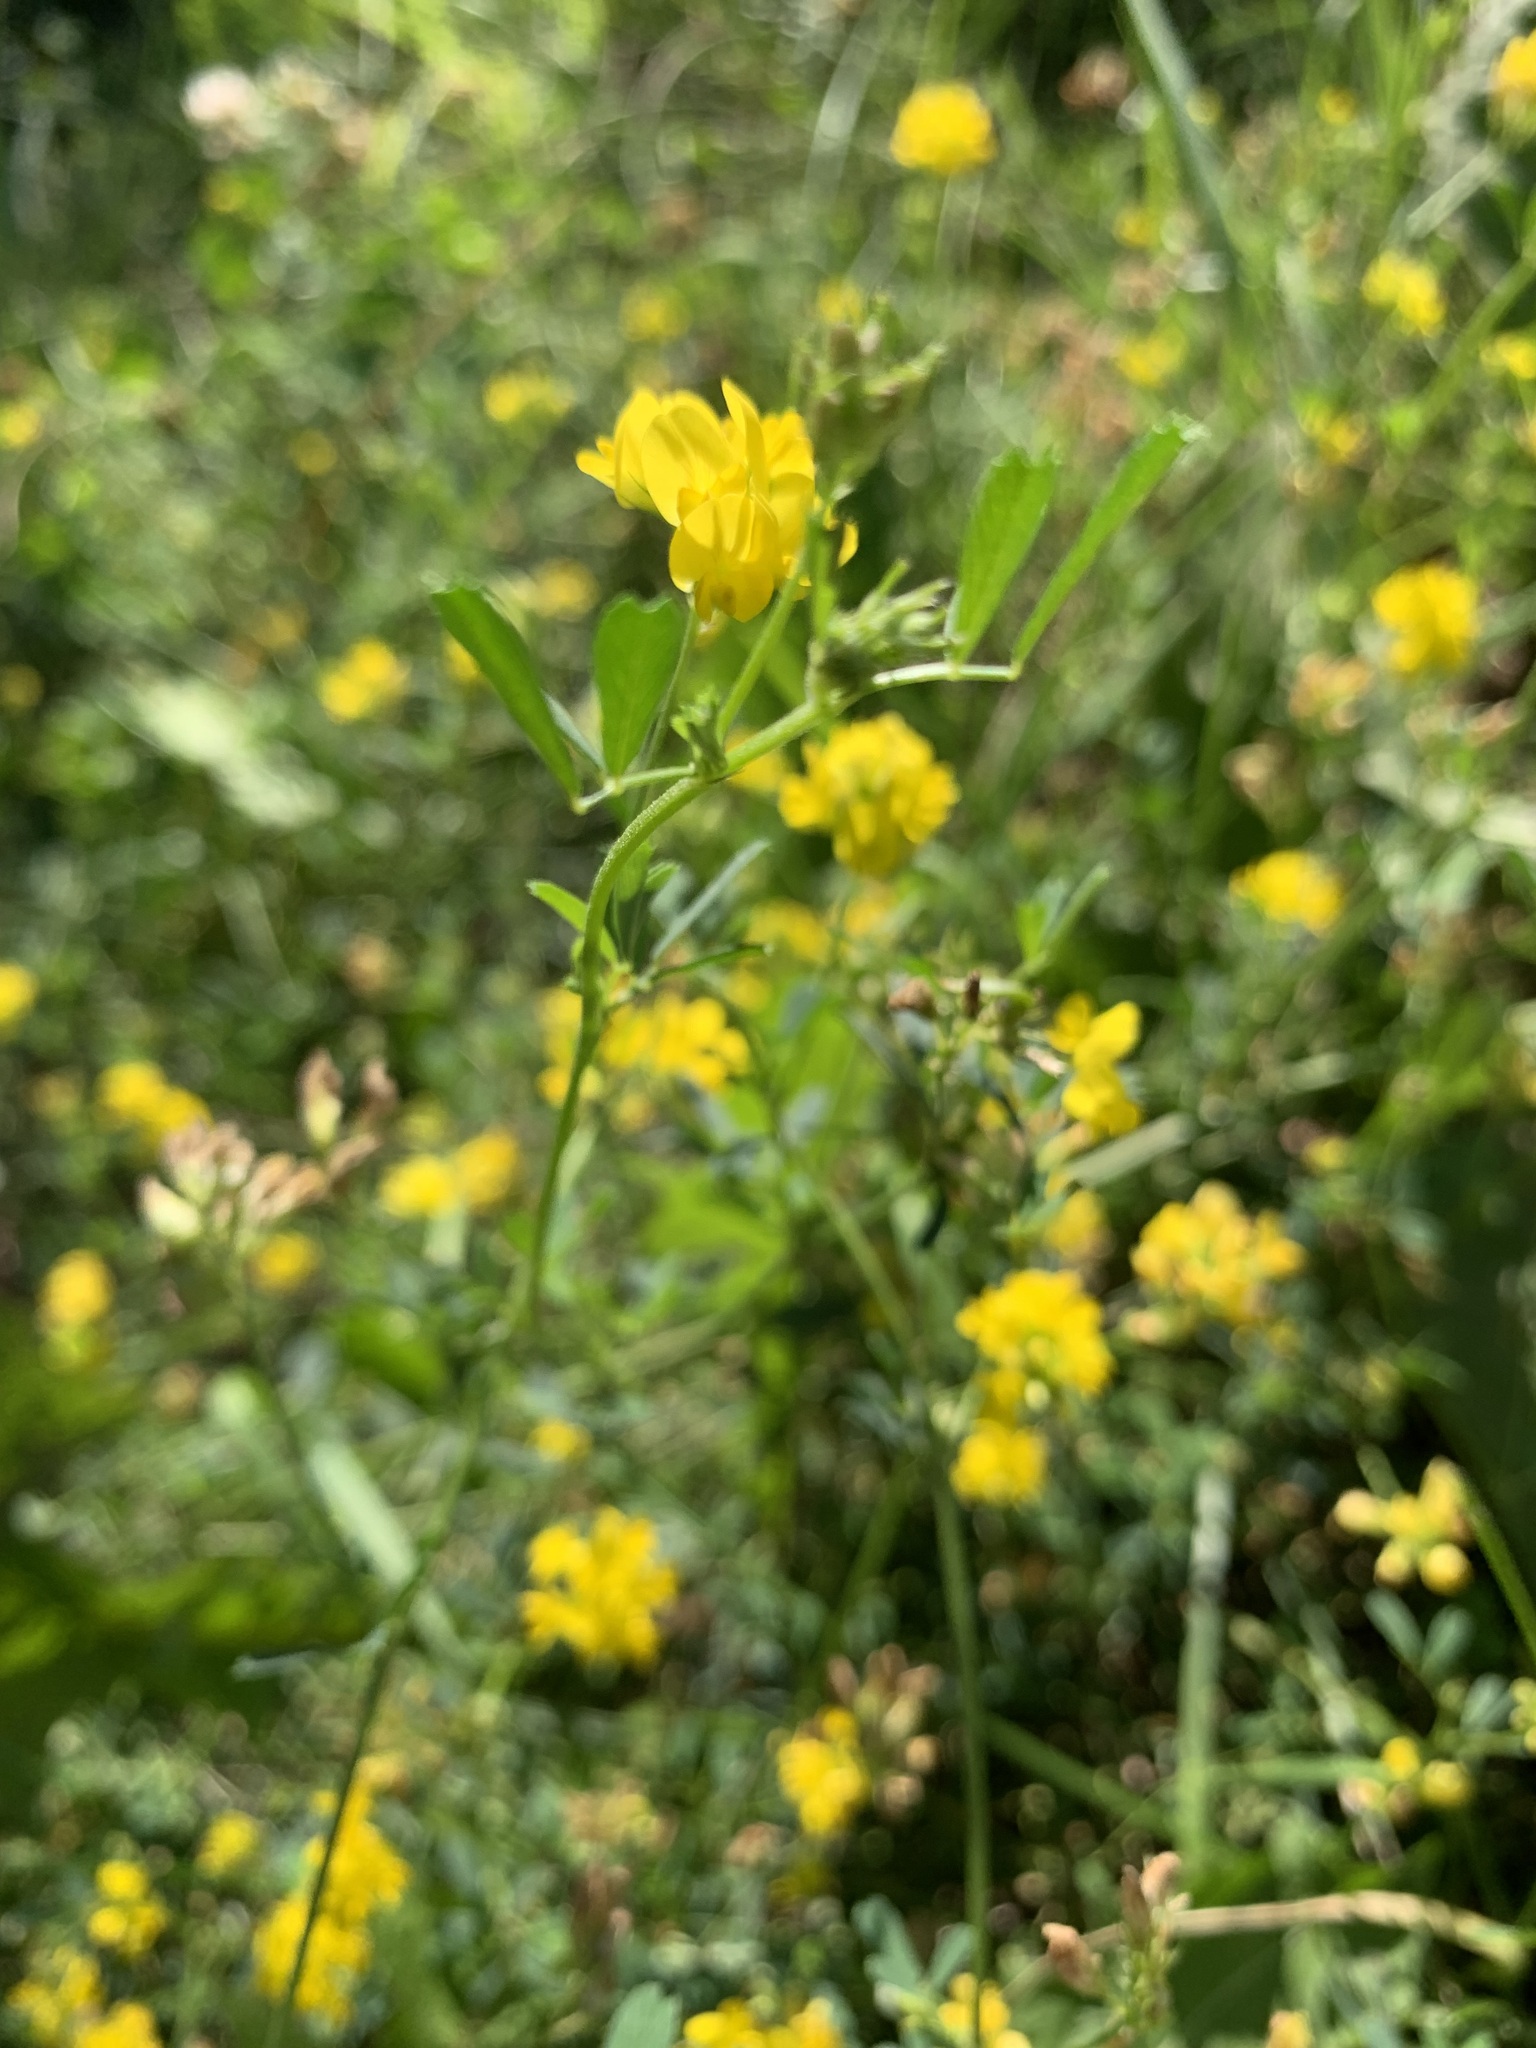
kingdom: Plantae
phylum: Tracheophyta
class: Magnoliopsida
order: Fabales
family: Fabaceae
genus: Medicago
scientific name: Medicago falcata
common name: Sickle medick
